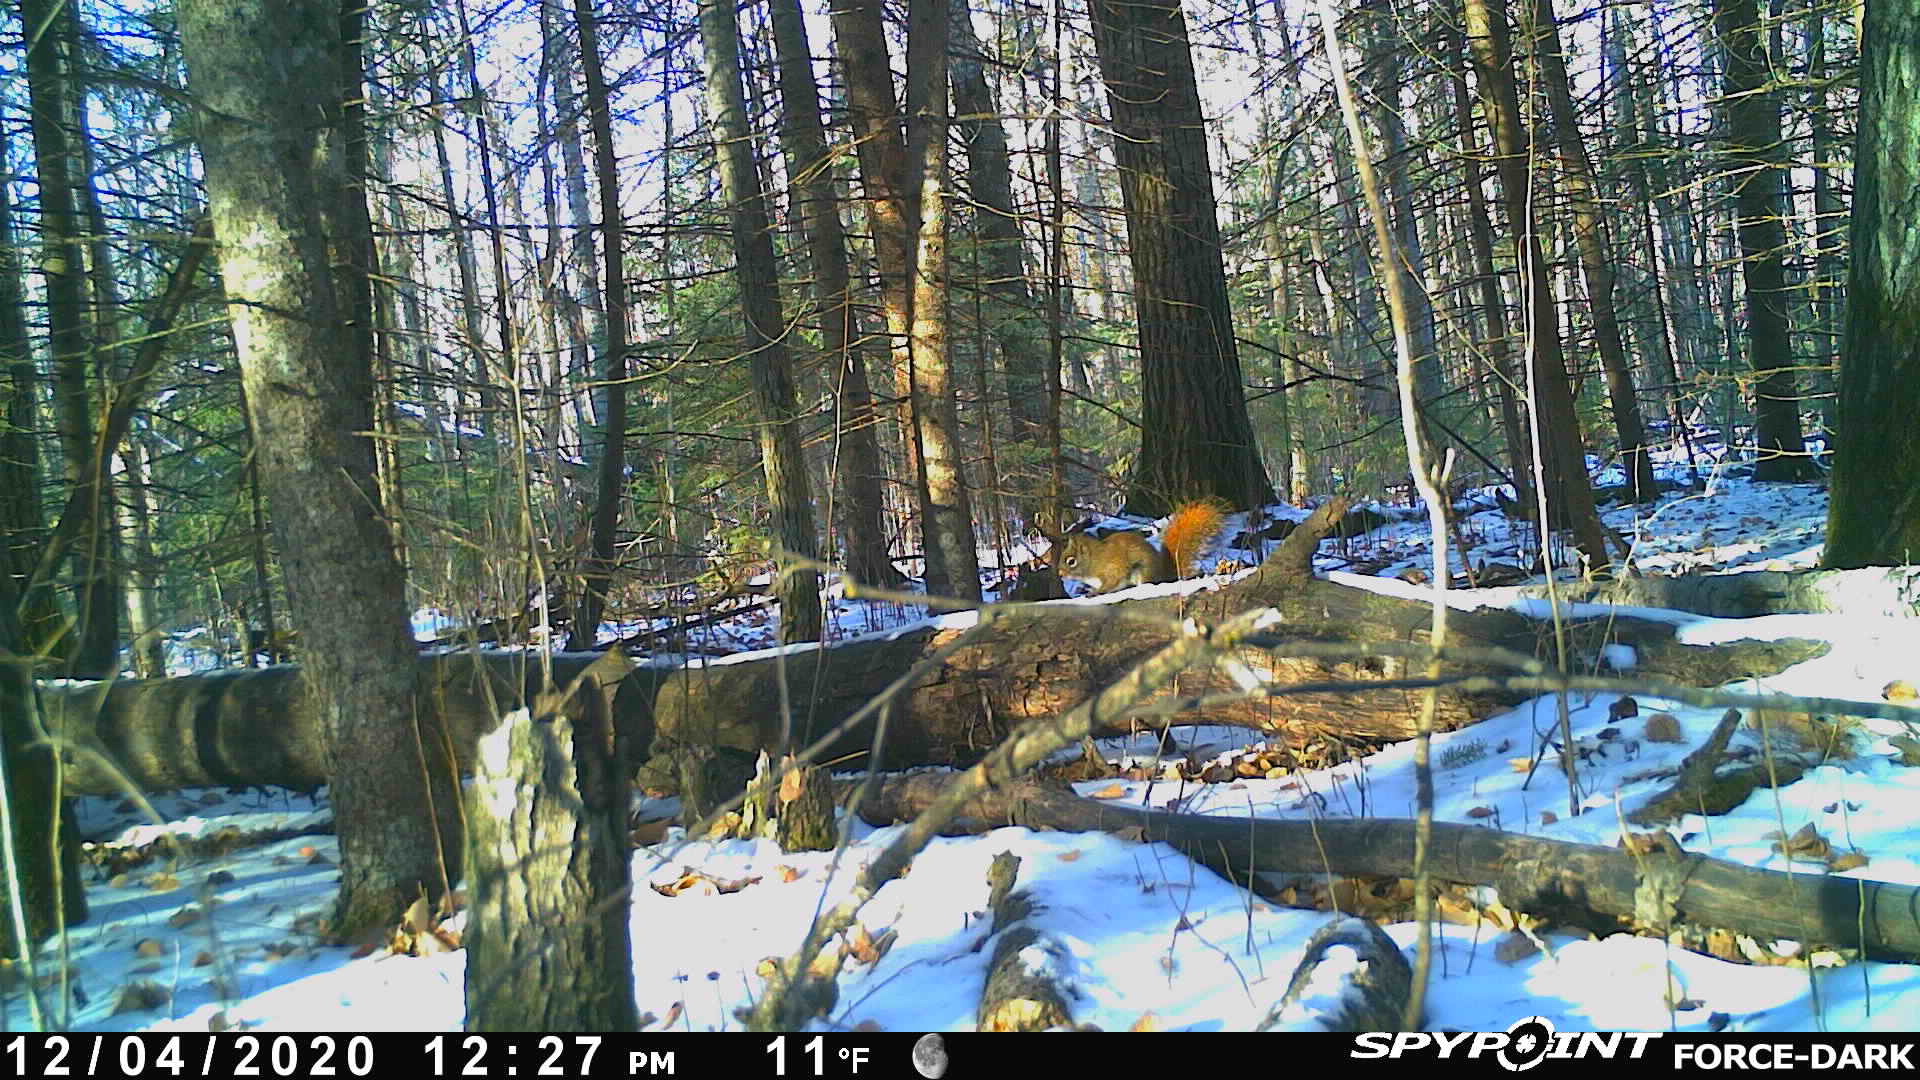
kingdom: Animalia
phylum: Chordata
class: Mammalia
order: Rodentia
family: Sciuridae
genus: Tamiasciurus
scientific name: Tamiasciurus hudsonicus
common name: Red squirrel
